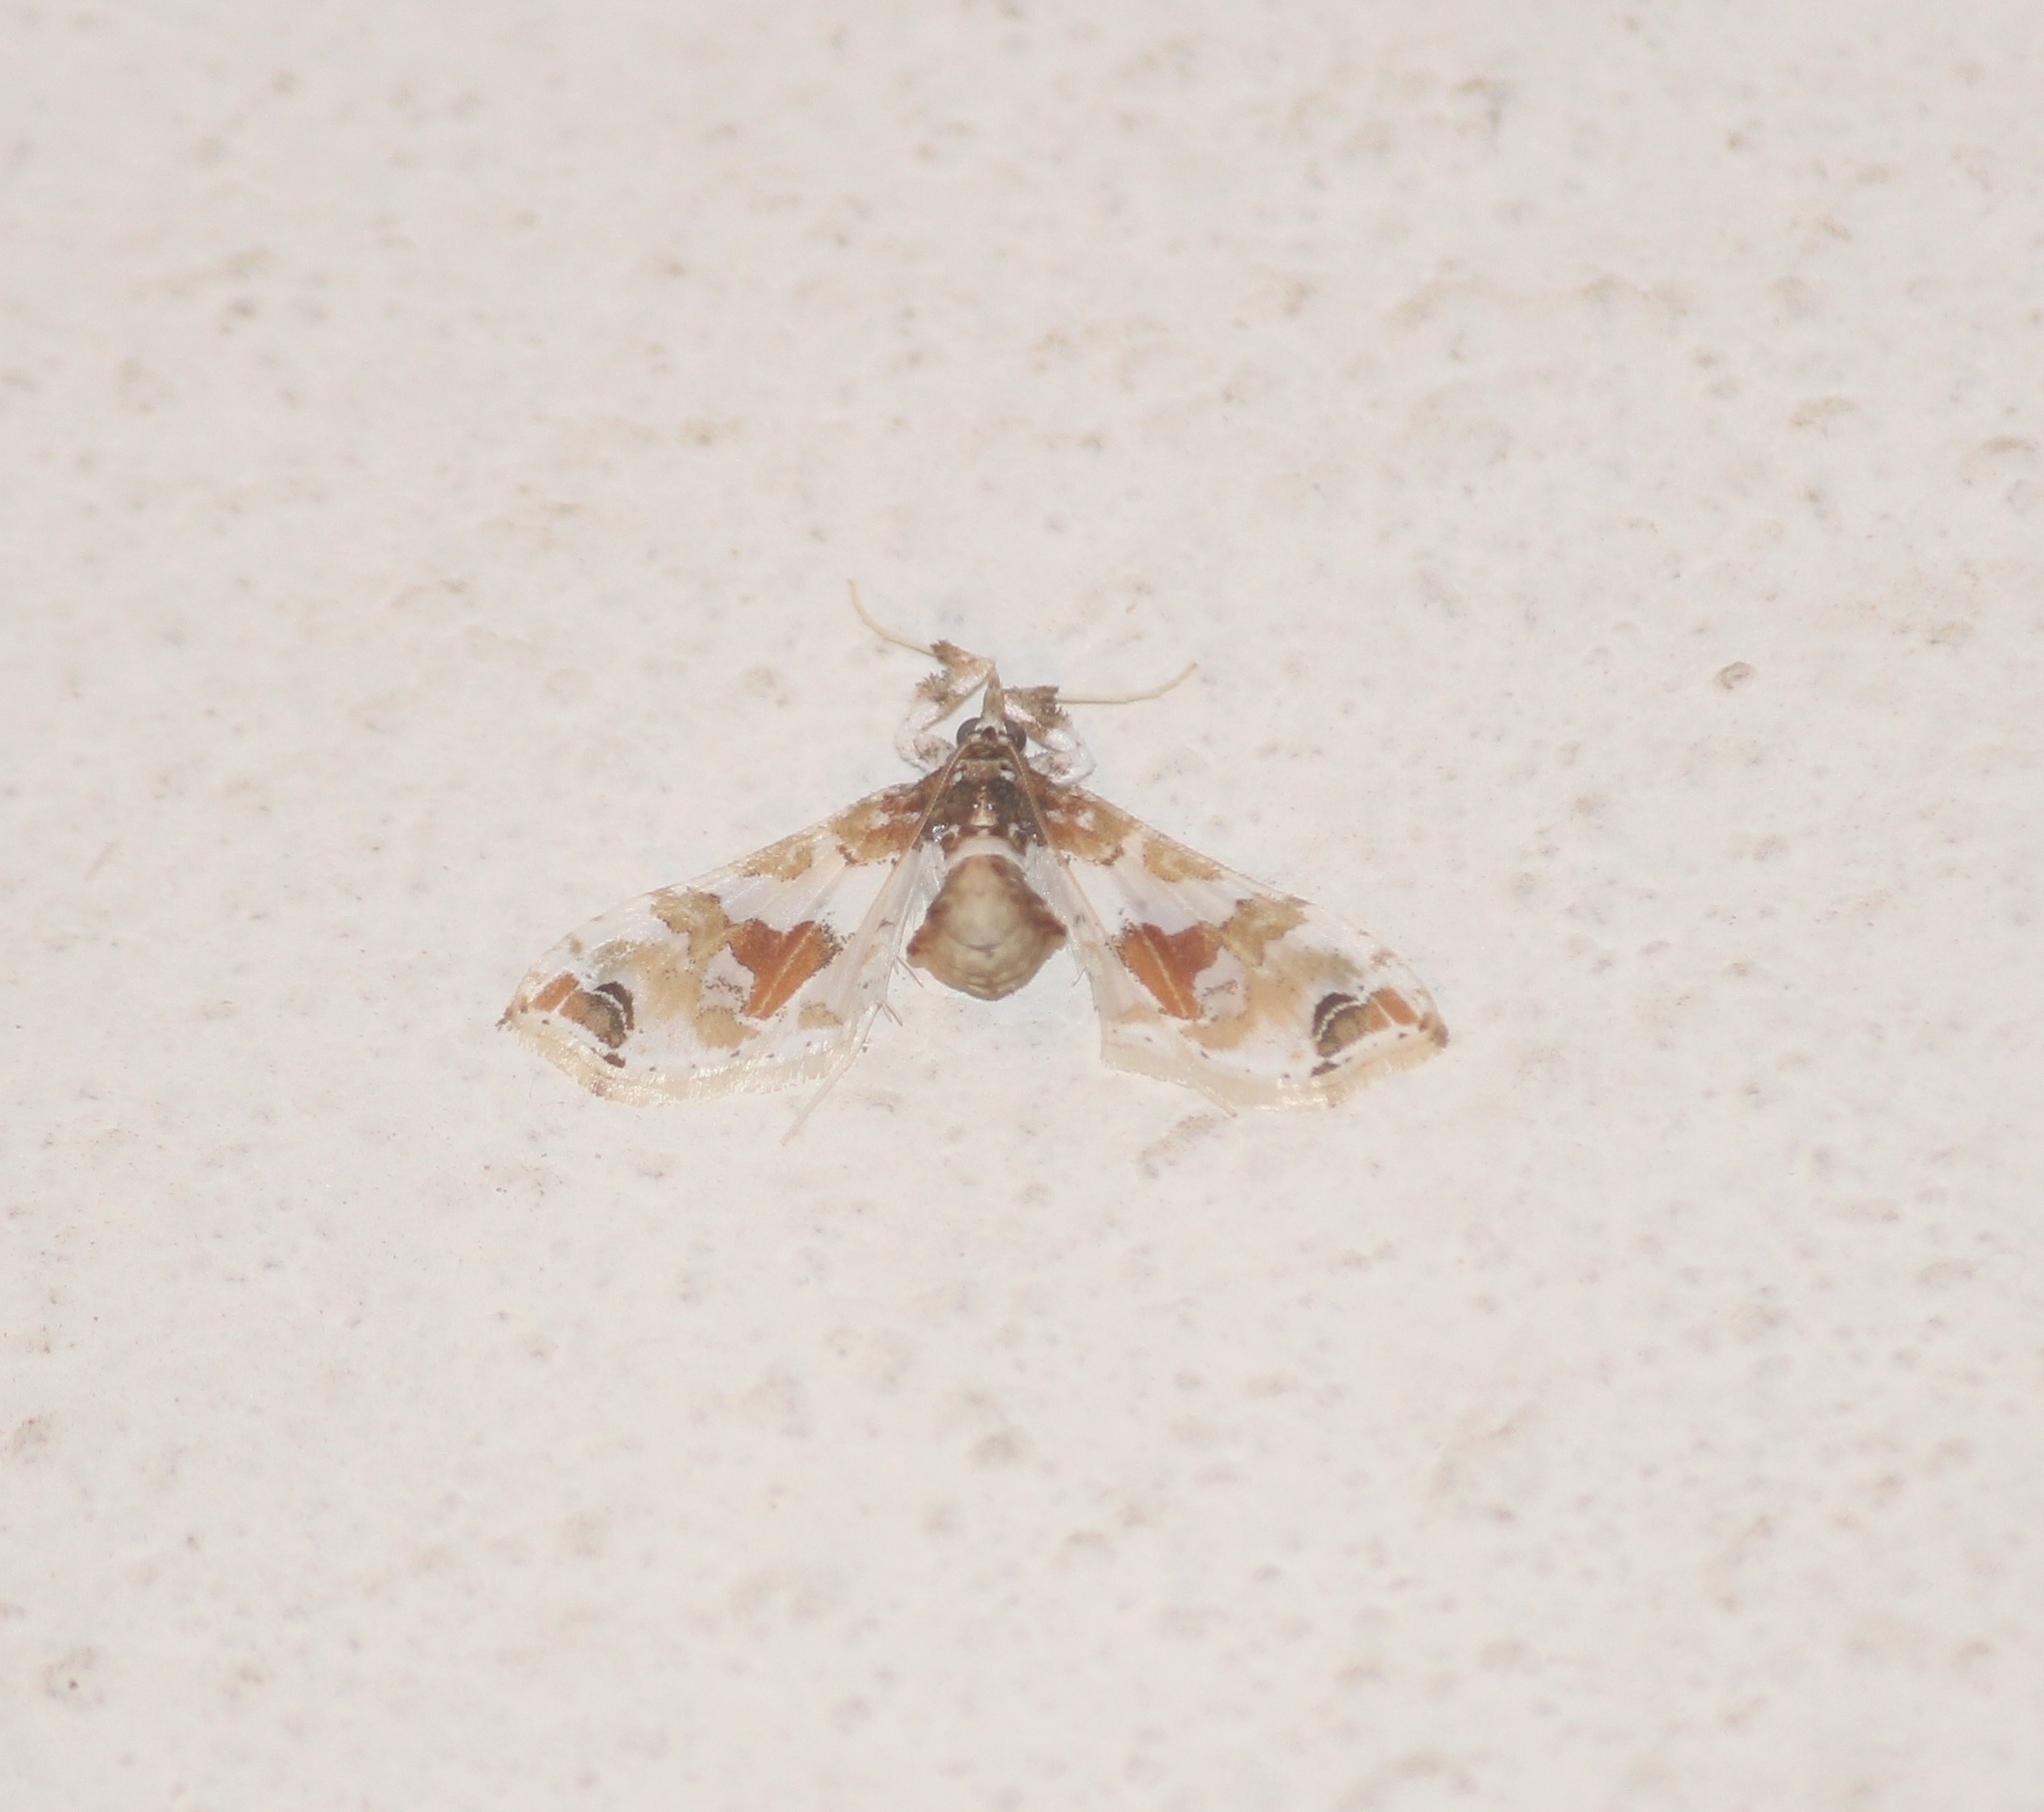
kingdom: Animalia
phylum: Arthropoda
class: Insecta
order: Lepidoptera
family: Crambidae
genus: Leucinodes
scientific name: Leucinodes orbonalis
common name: Aubergine pearl
